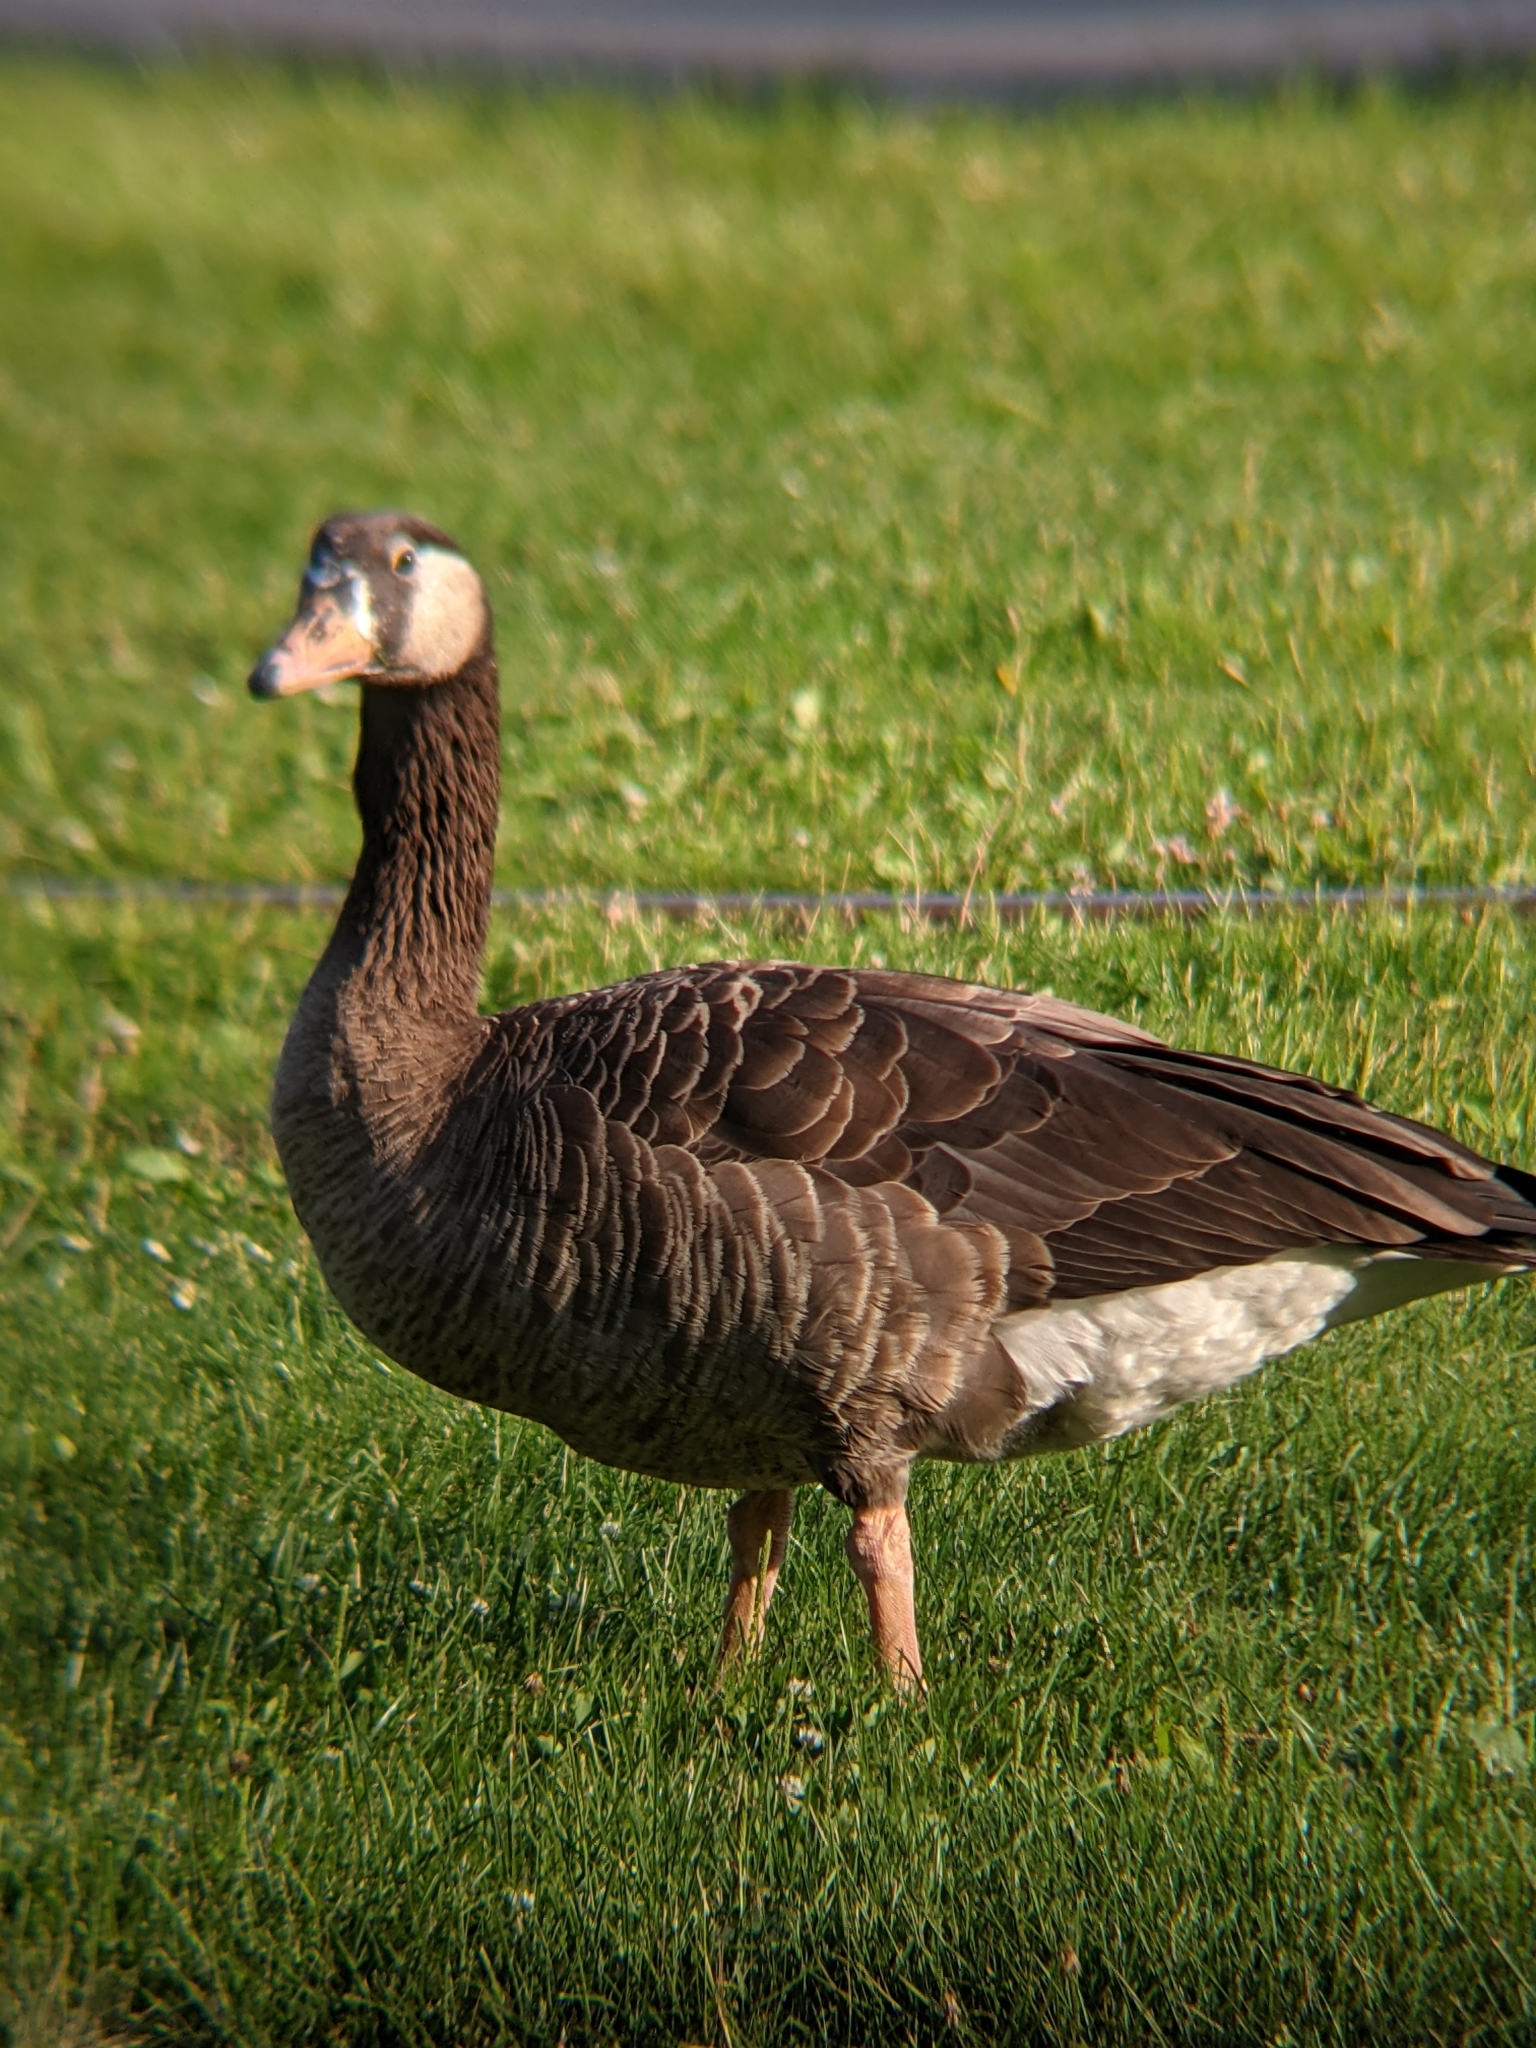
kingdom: Animalia
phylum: Chordata
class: Aves
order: Anseriformes
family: Anatidae
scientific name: Anatidae
